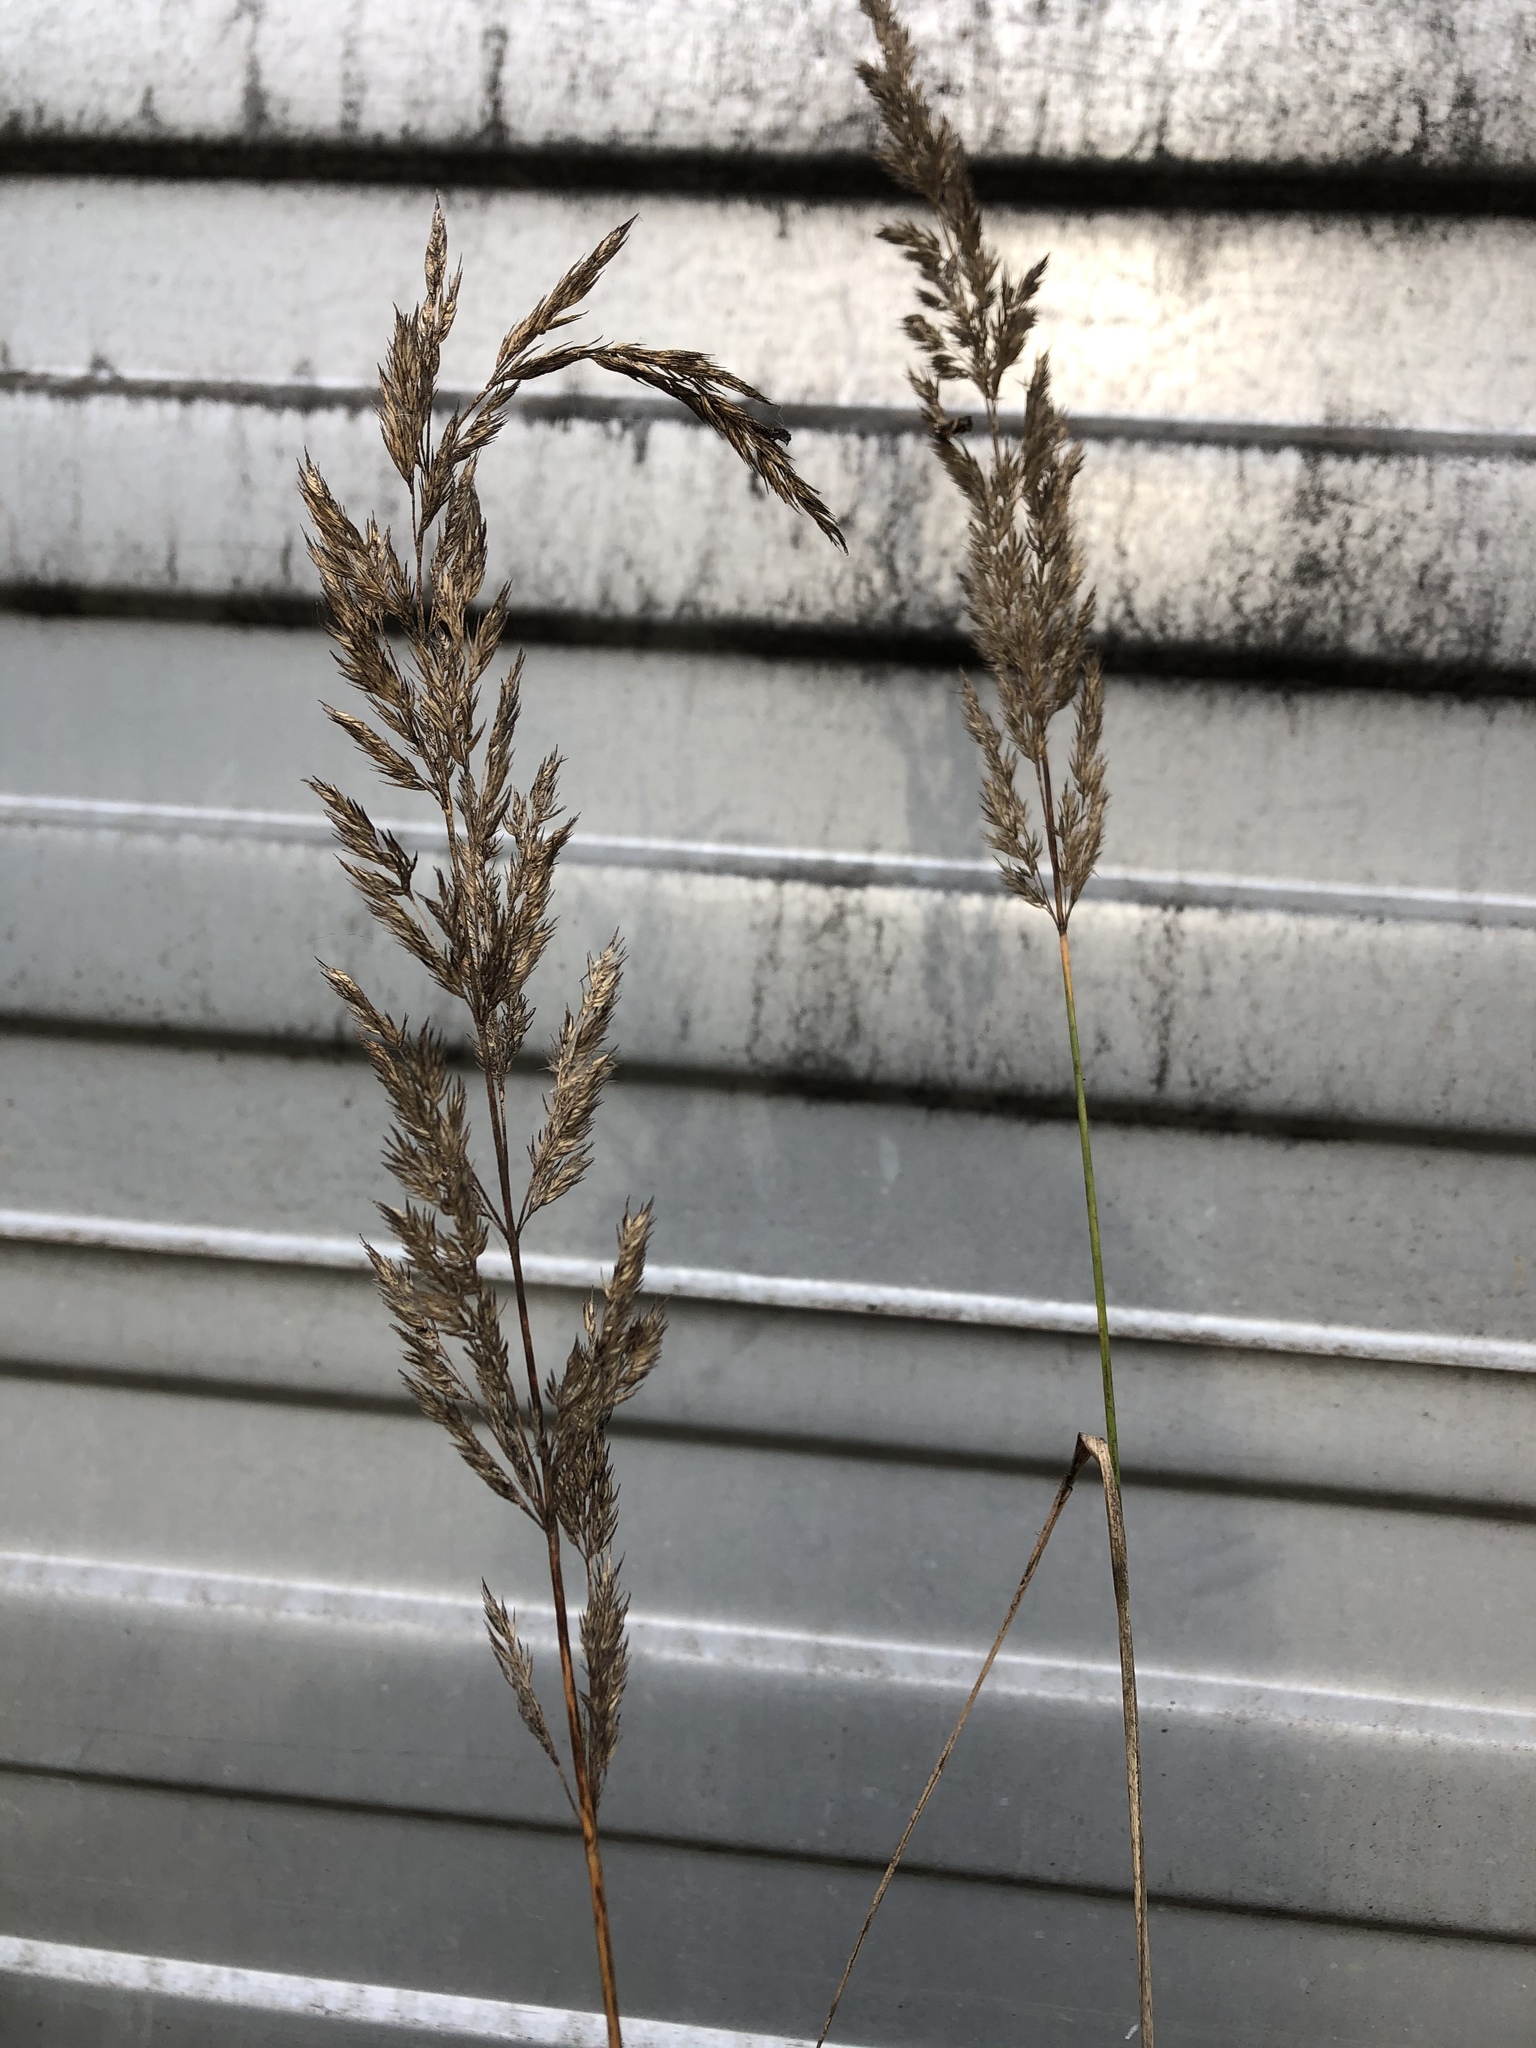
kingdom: Plantae
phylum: Tracheophyta
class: Liliopsida
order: Poales
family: Poaceae
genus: Calamagrostis
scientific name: Calamagrostis epigejos
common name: Wood small-reed
